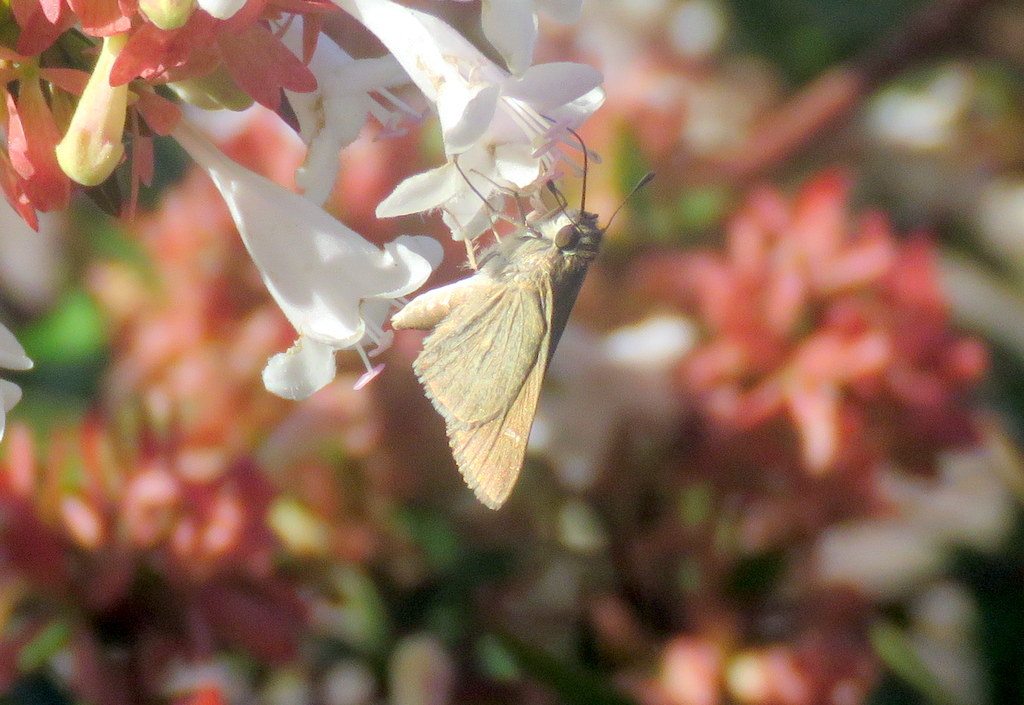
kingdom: Animalia
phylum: Arthropoda
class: Insecta
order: Lepidoptera
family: Hesperiidae
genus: Lerodea
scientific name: Lerodea eufala
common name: Eufala skipper
